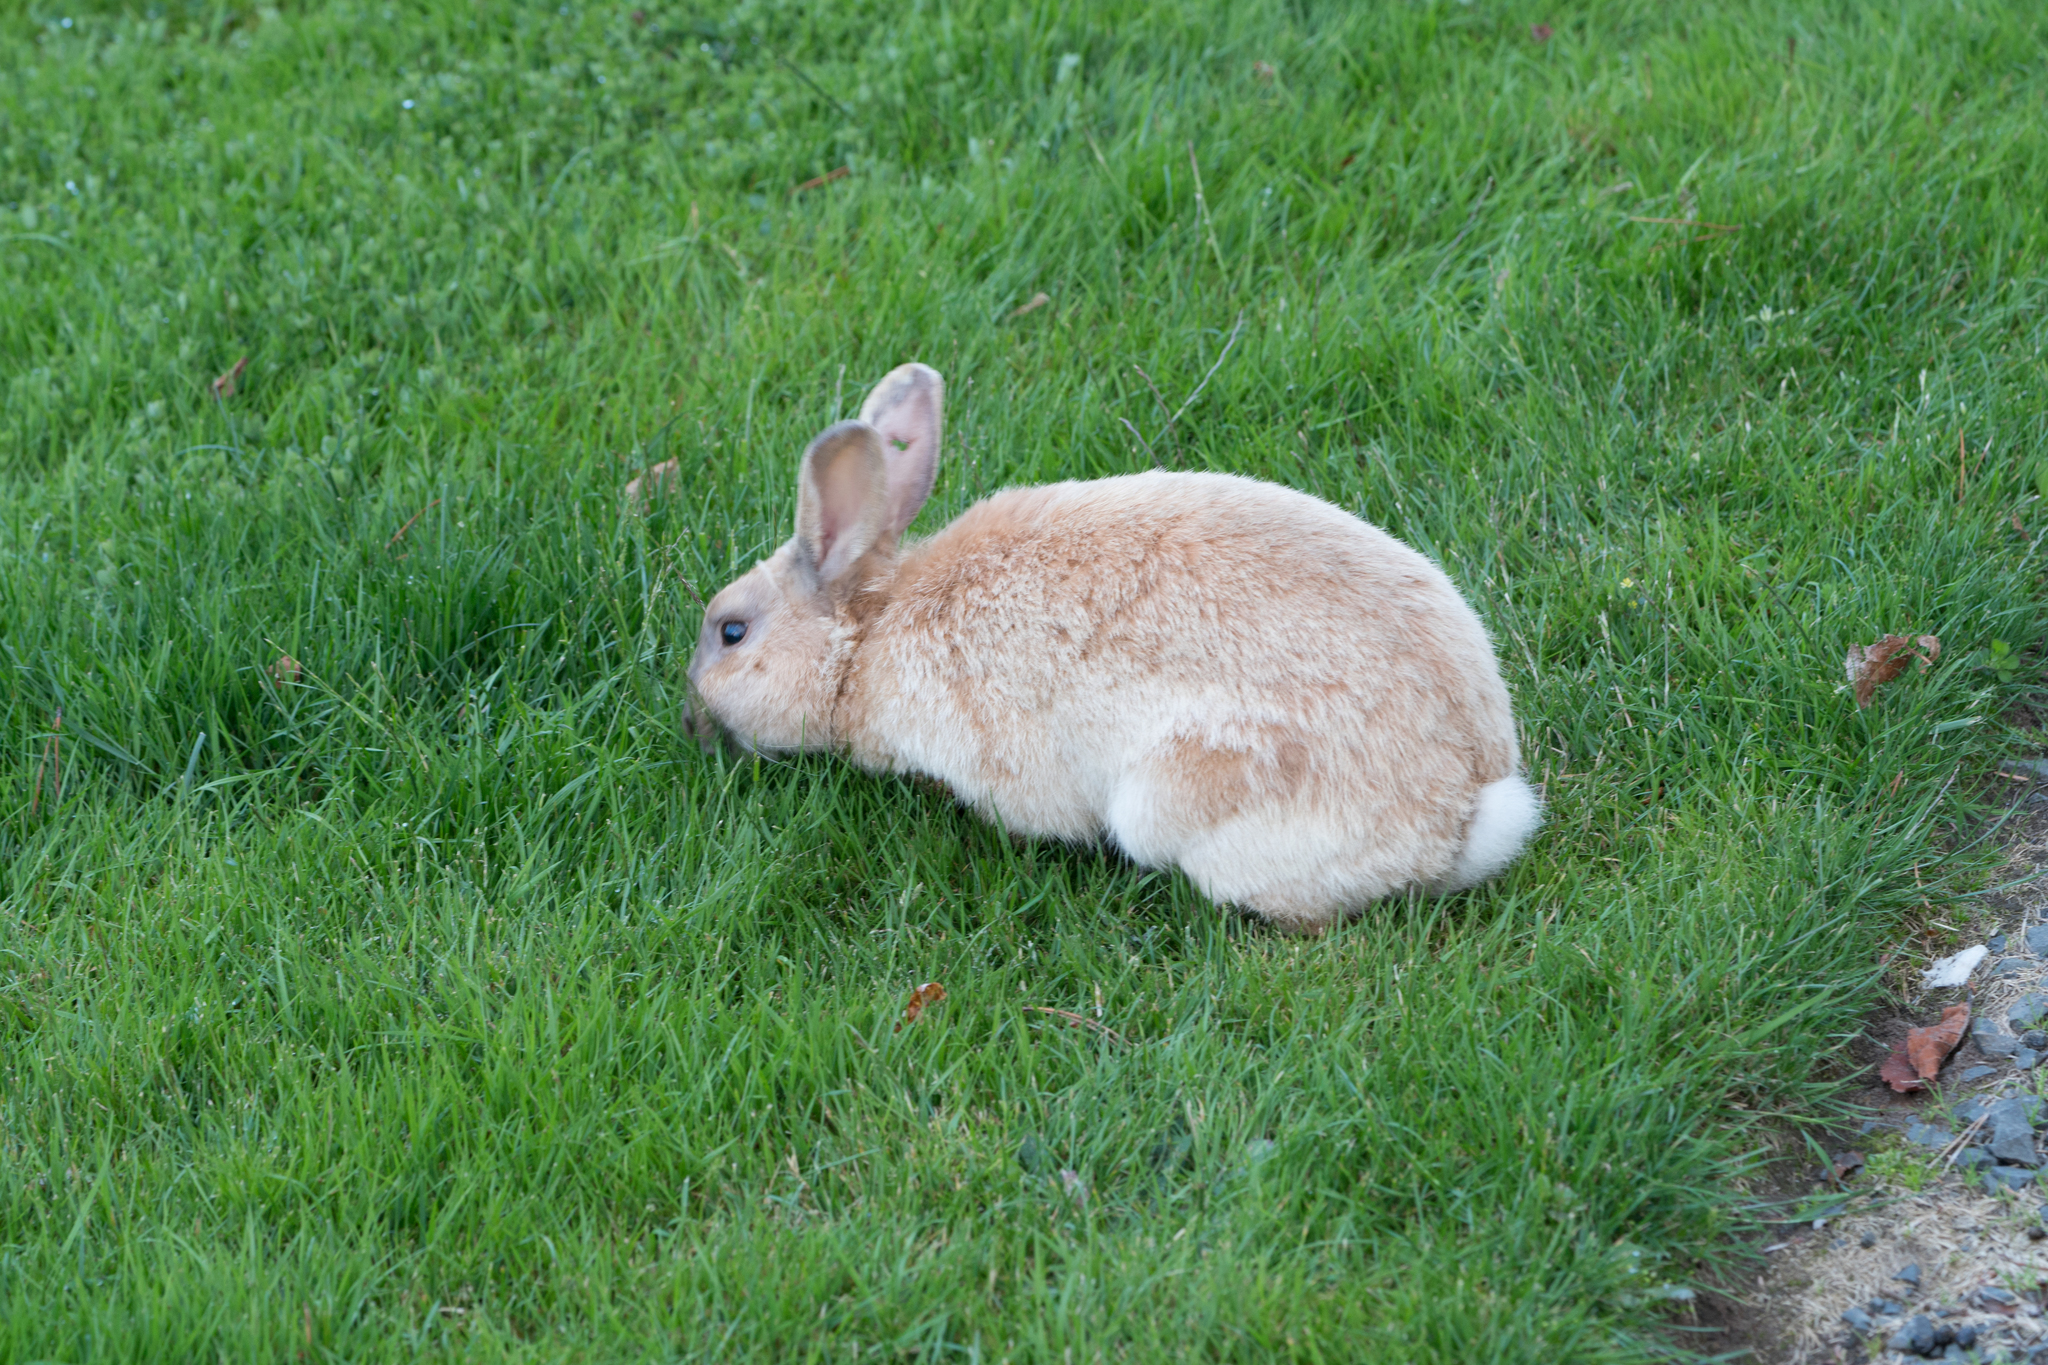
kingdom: Animalia
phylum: Chordata
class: Mammalia
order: Lagomorpha
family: Leporidae
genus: Oryctolagus
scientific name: Oryctolagus cuniculus
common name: European rabbit
